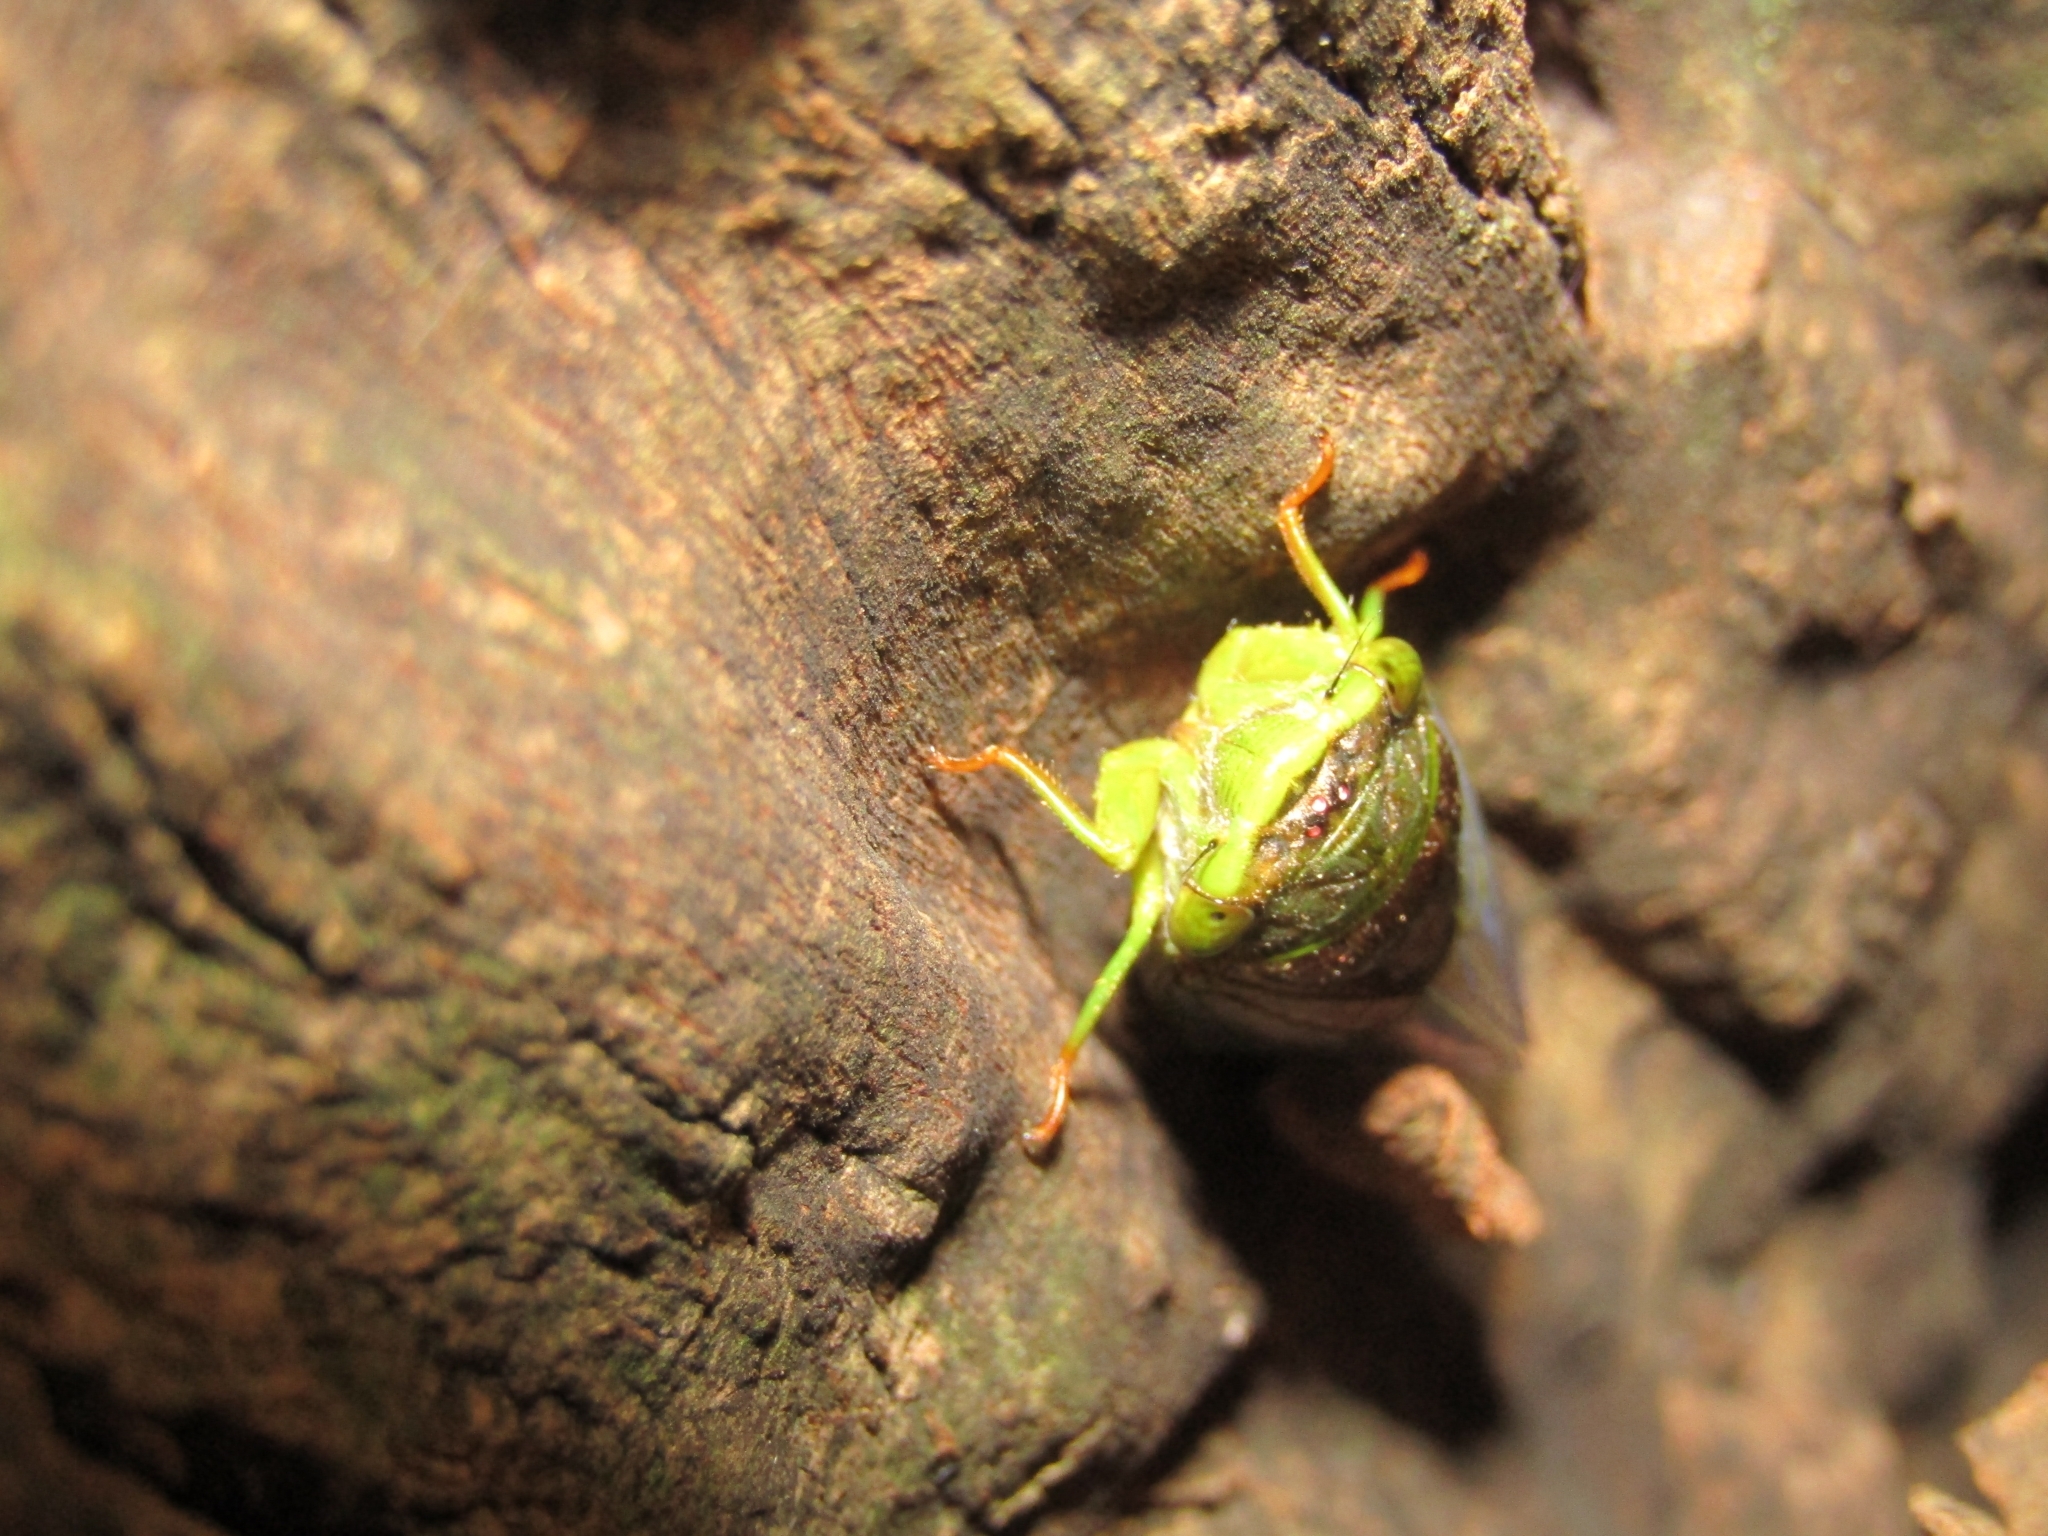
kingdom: Animalia
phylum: Arthropoda
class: Insecta
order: Hemiptera
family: Cicadidae
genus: Acanthoventris
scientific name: Acanthoventris drewseni
